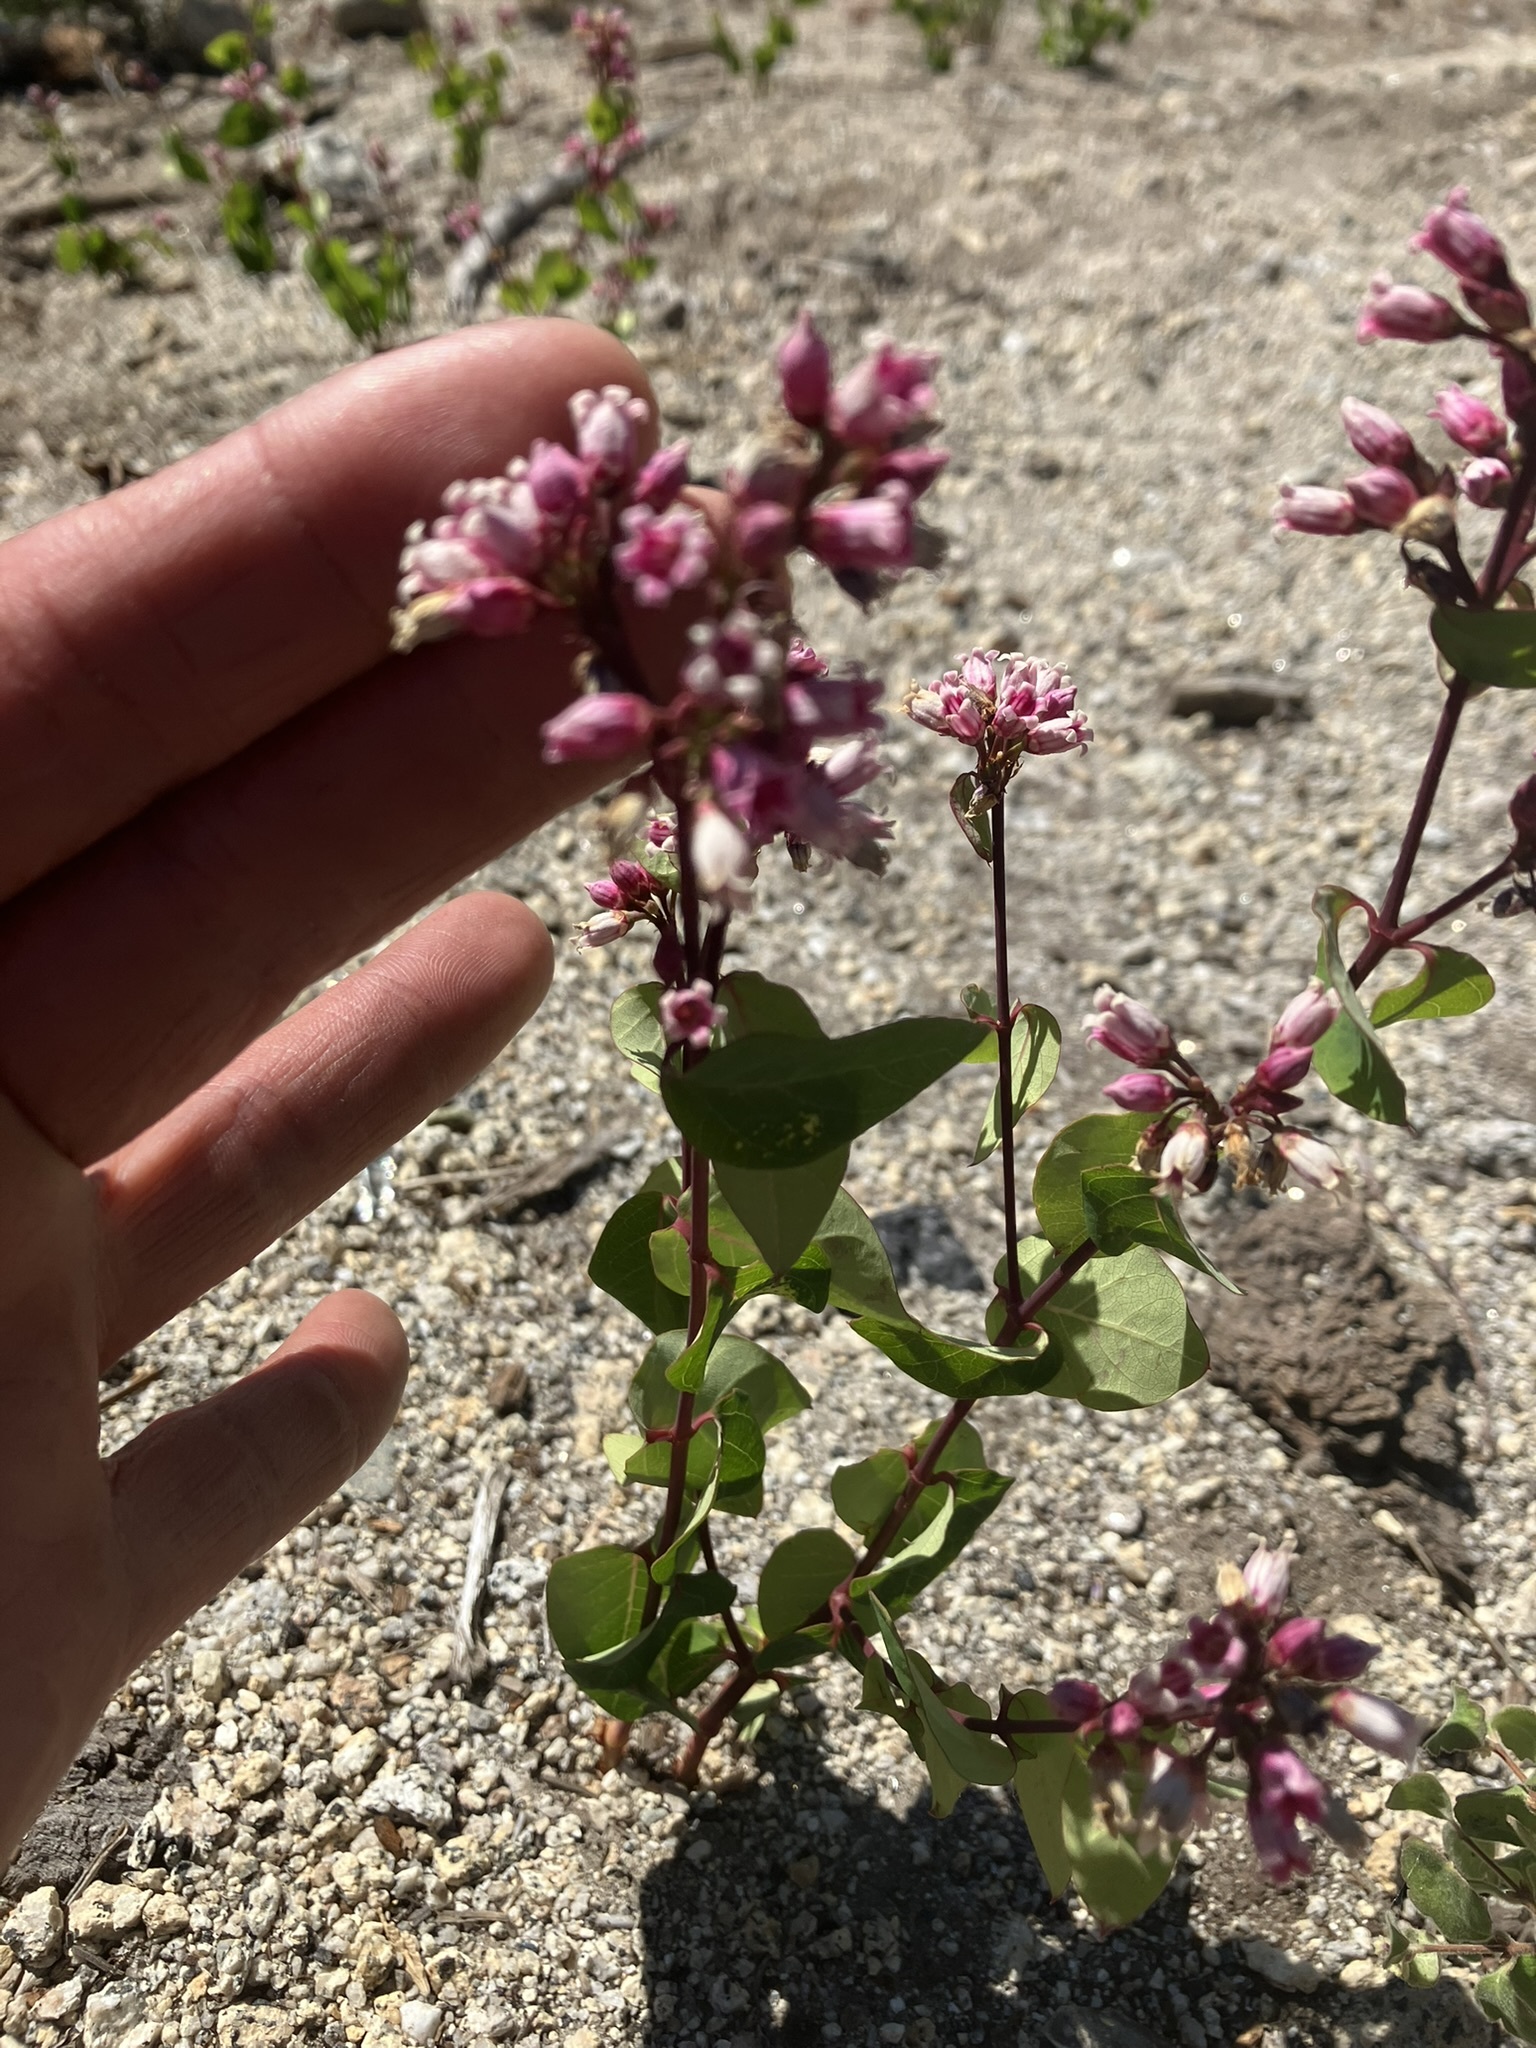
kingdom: Plantae
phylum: Tracheophyta
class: Magnoliopsida
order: Gentianales
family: Apocynaceae
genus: Apocynum
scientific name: Apocynum androsaemifolium
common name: Spreading dogbane
